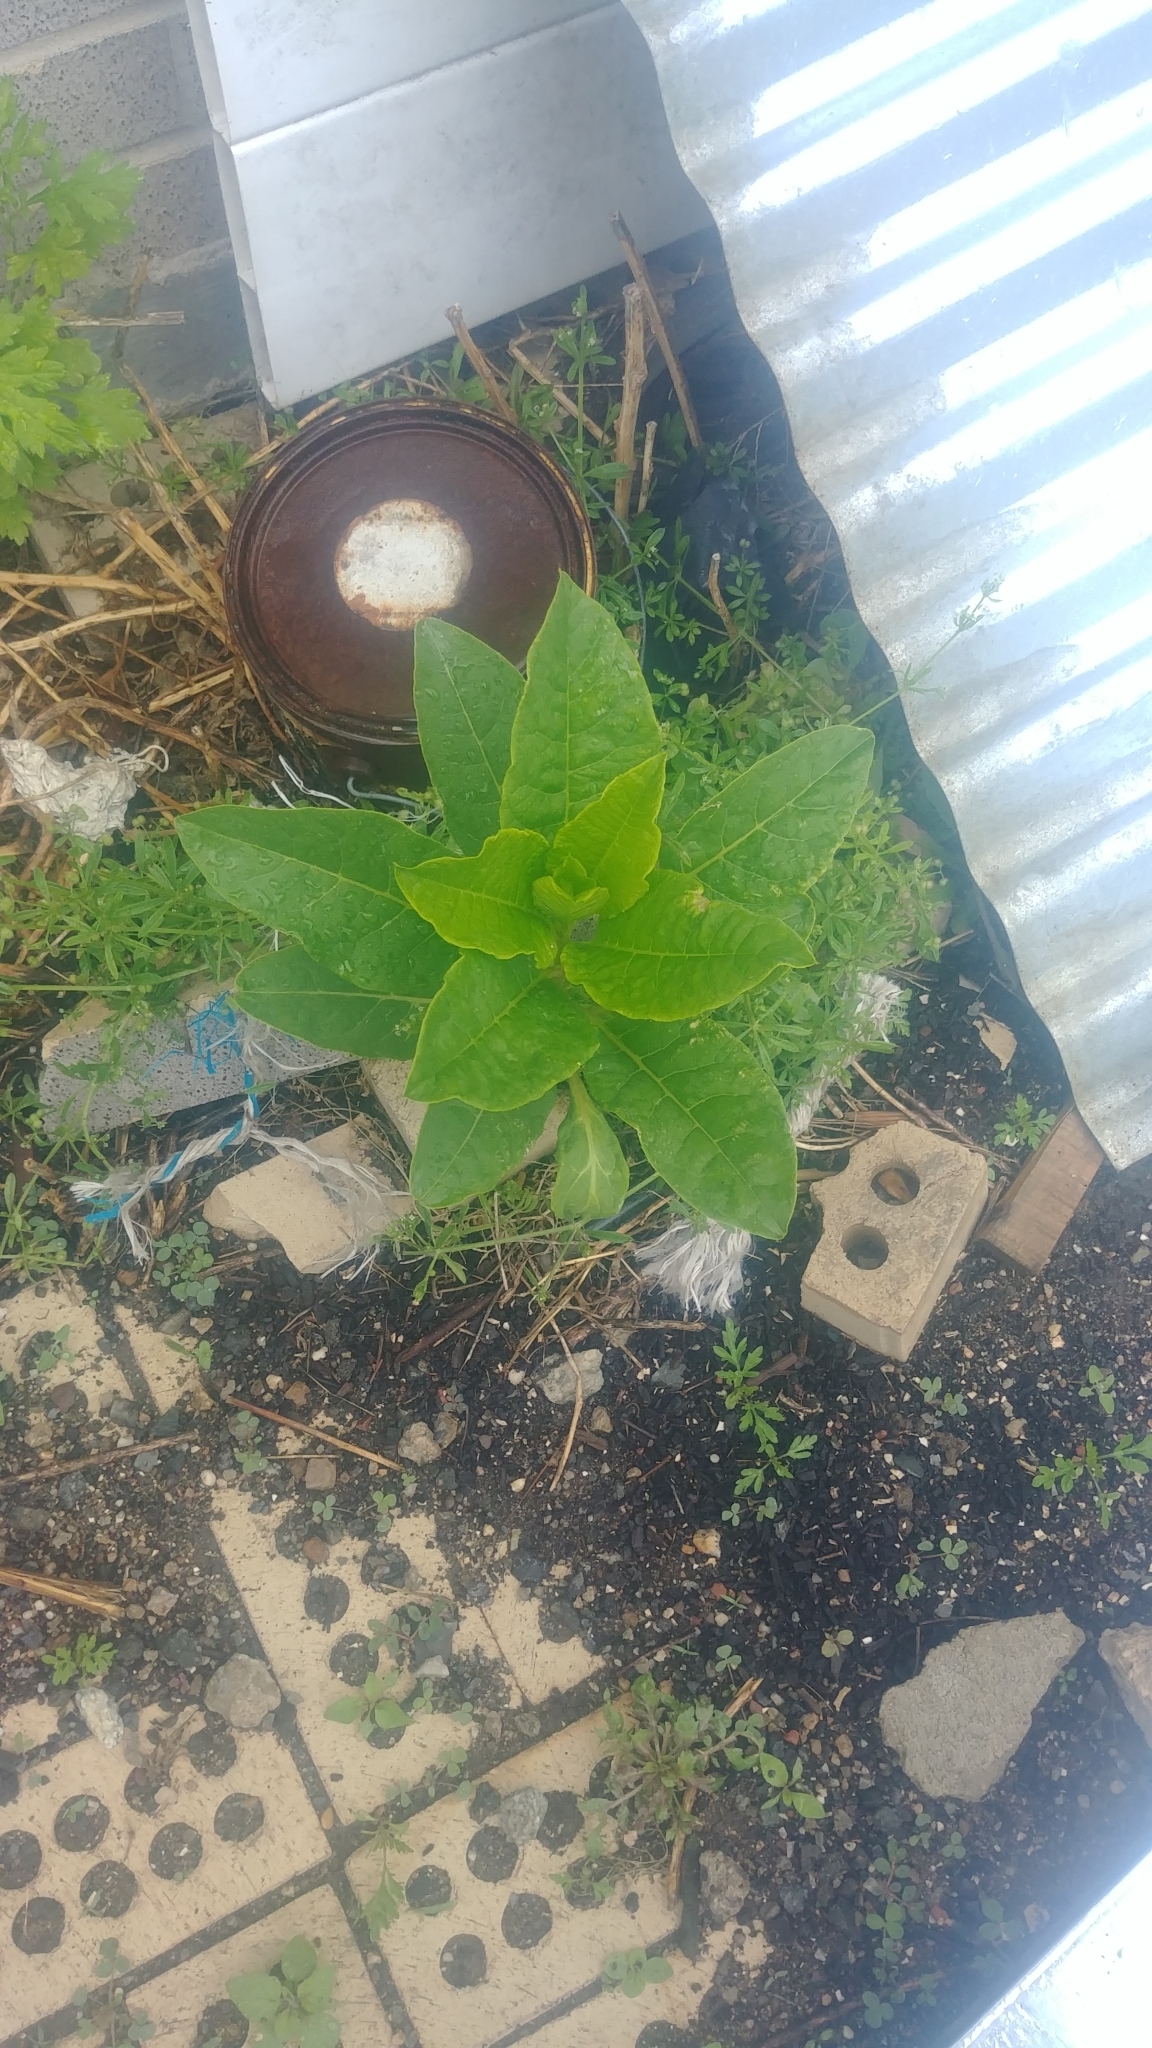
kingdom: Plantae
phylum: Tracheophyta
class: Magnoliopsida
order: Caryophyllales
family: Phytolaccaceae
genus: Phytolacca
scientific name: Phytolacca americana
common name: American pokeweed
